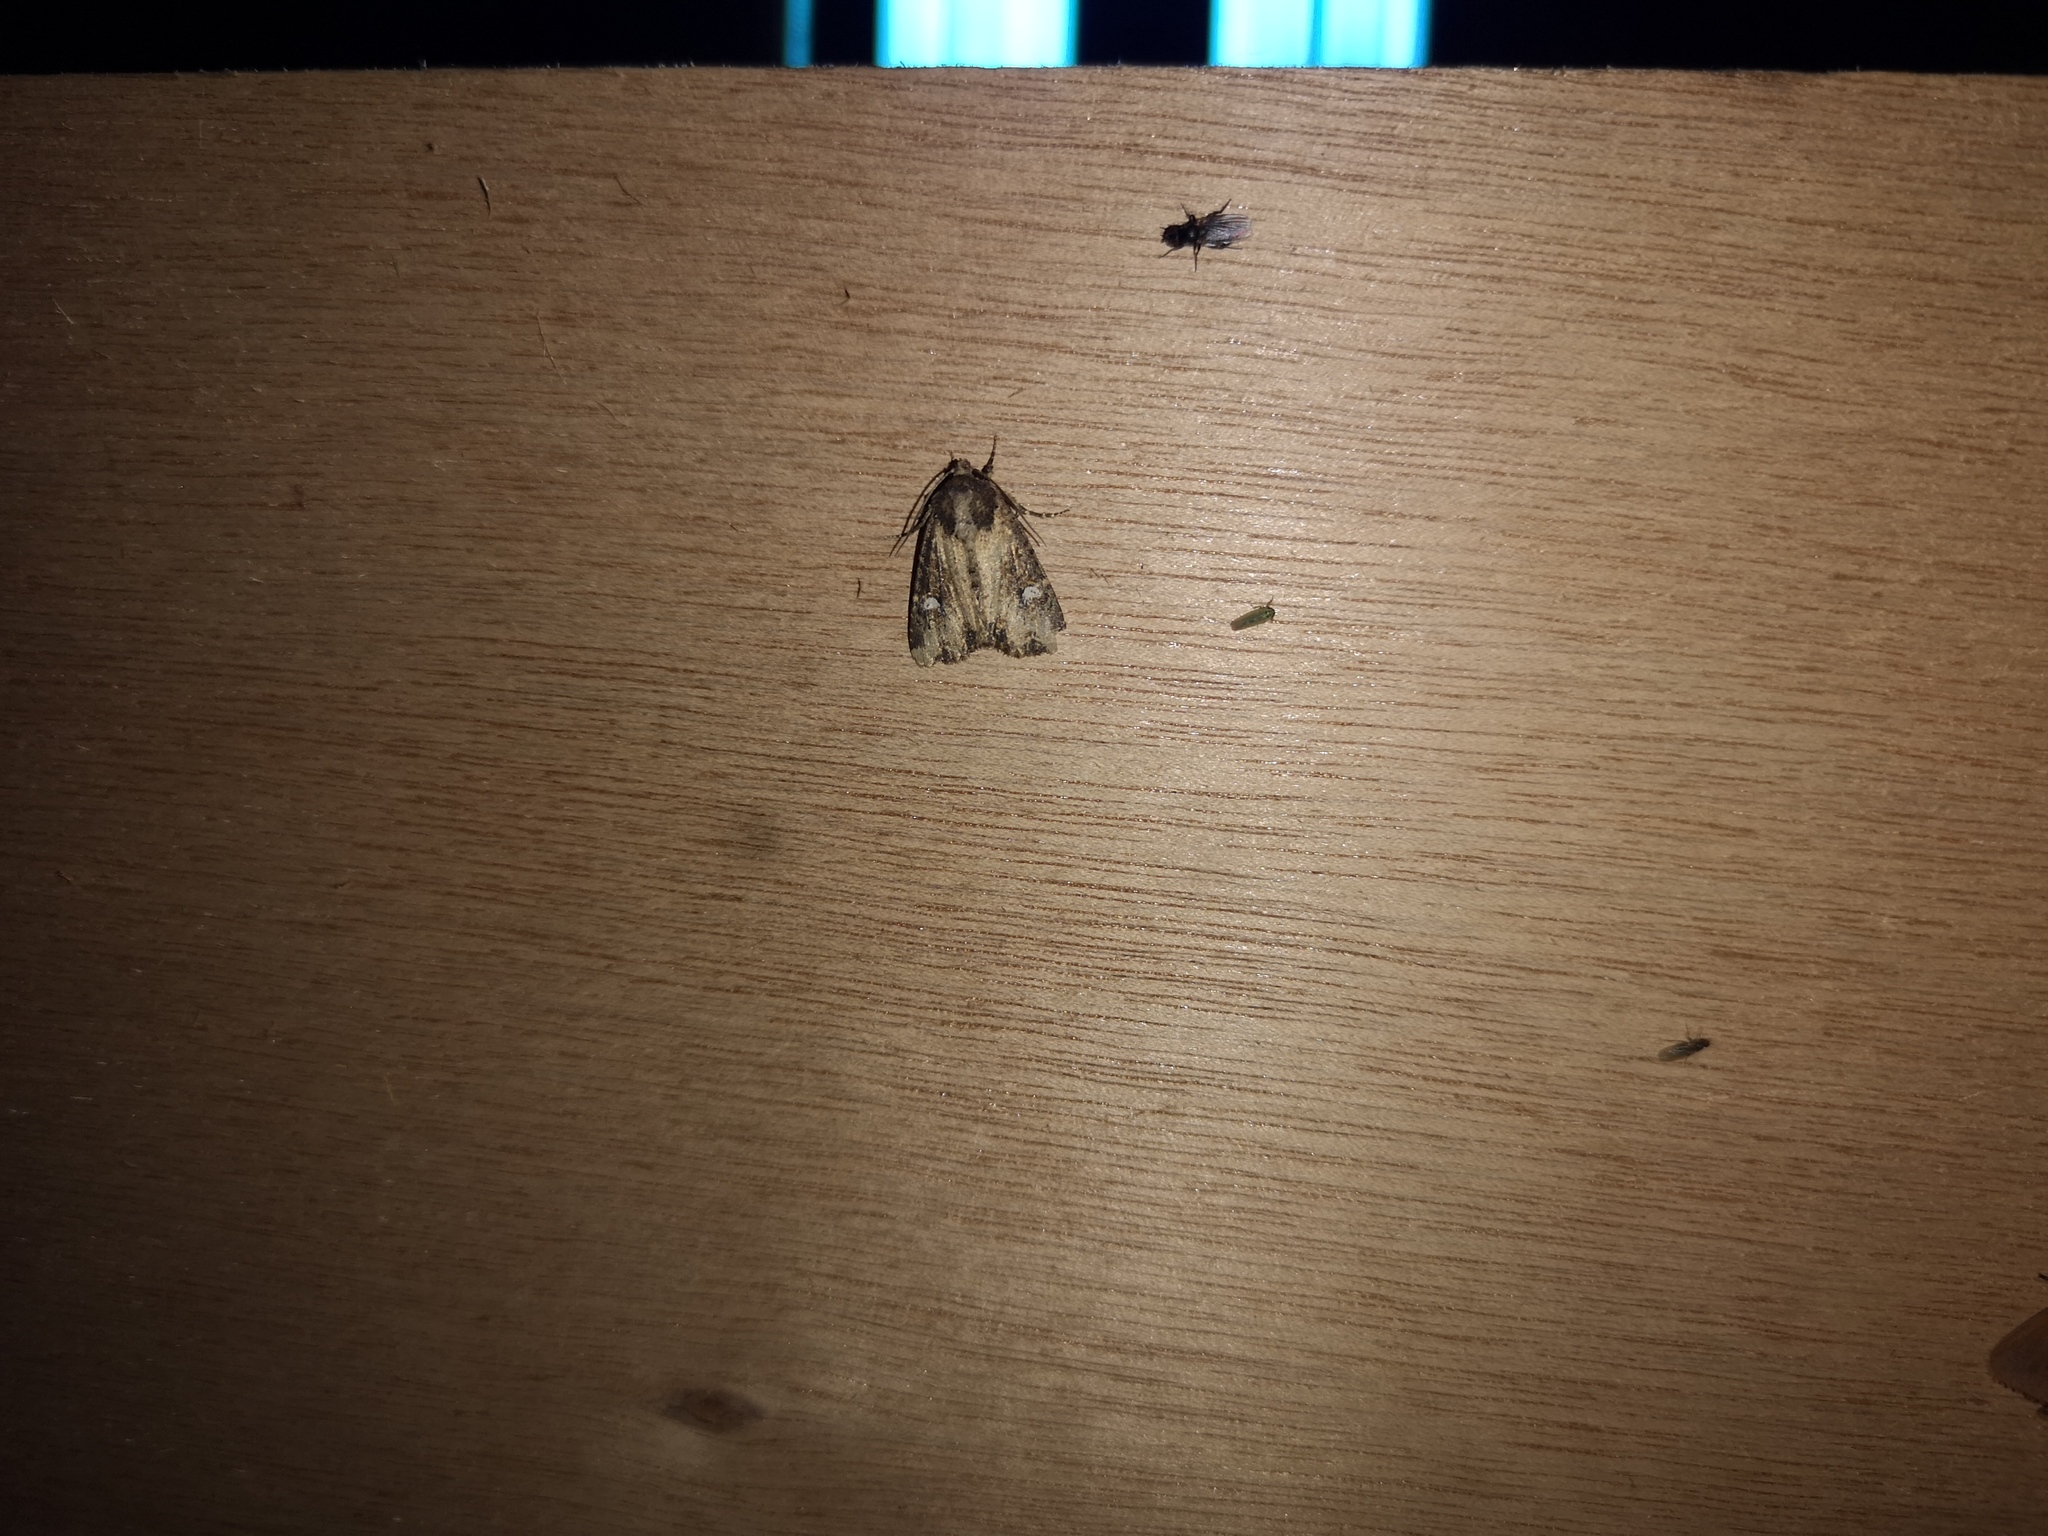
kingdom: Animalia
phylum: Arthropoda
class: Insecta
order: Lepidoptera
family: Noctuidae
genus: Mesapamea
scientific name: Mesapamea
